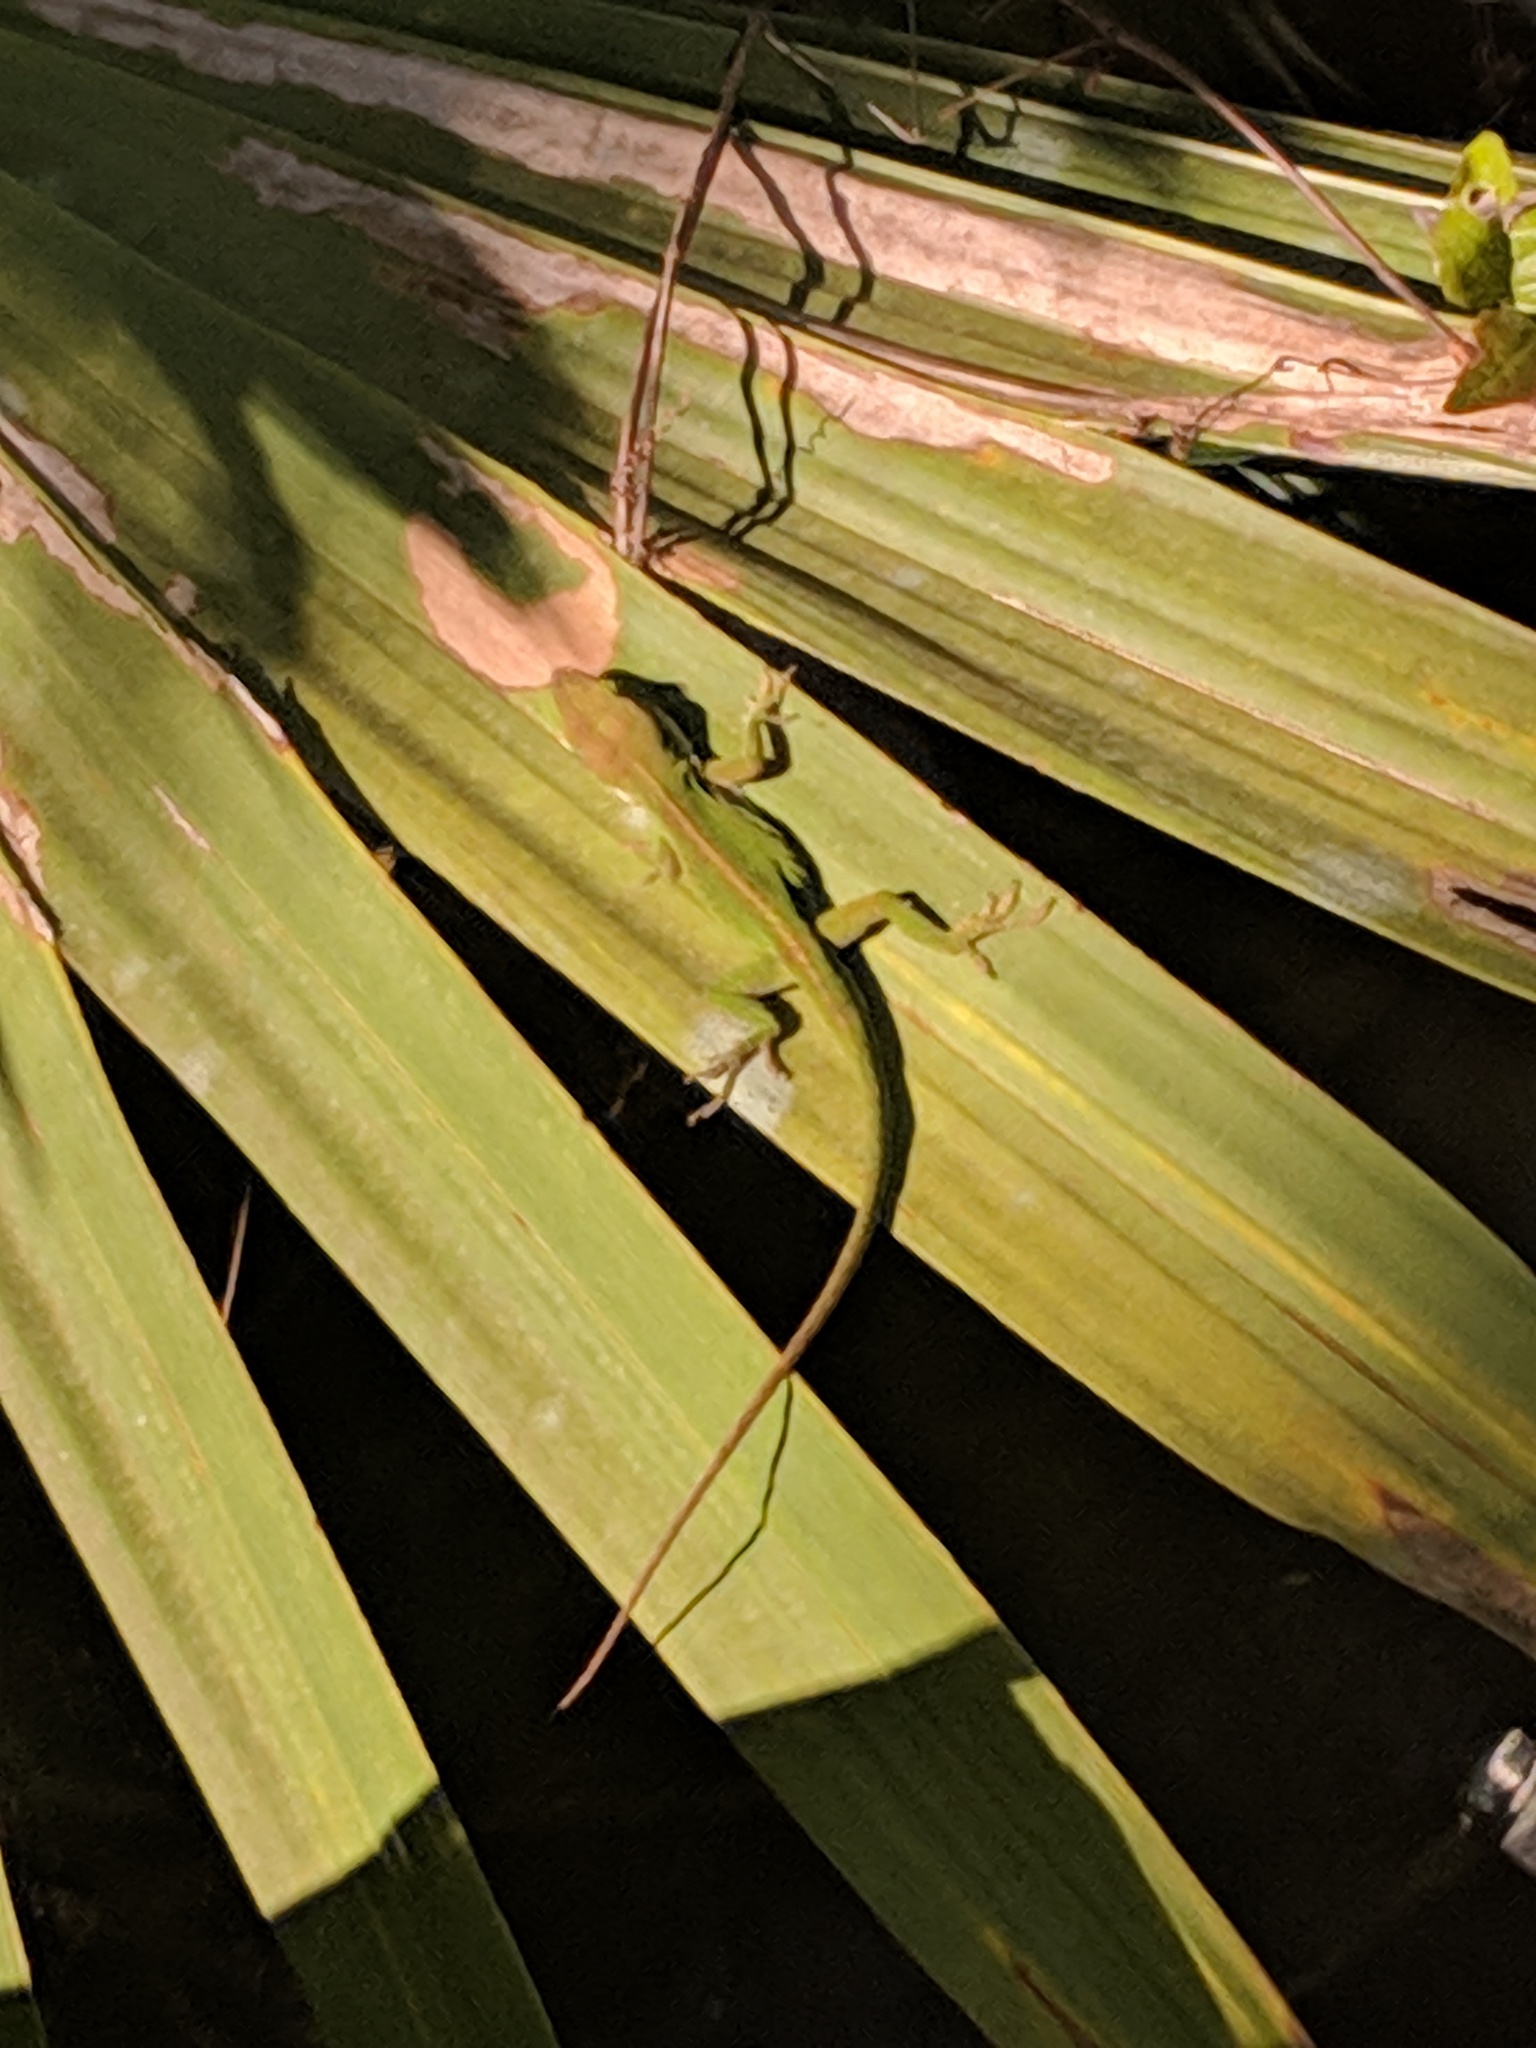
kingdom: Animalia
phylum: Chordata
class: Squamata
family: Dactyloidae
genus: Anolis
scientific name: Anolis carolinensis
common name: Green anole
